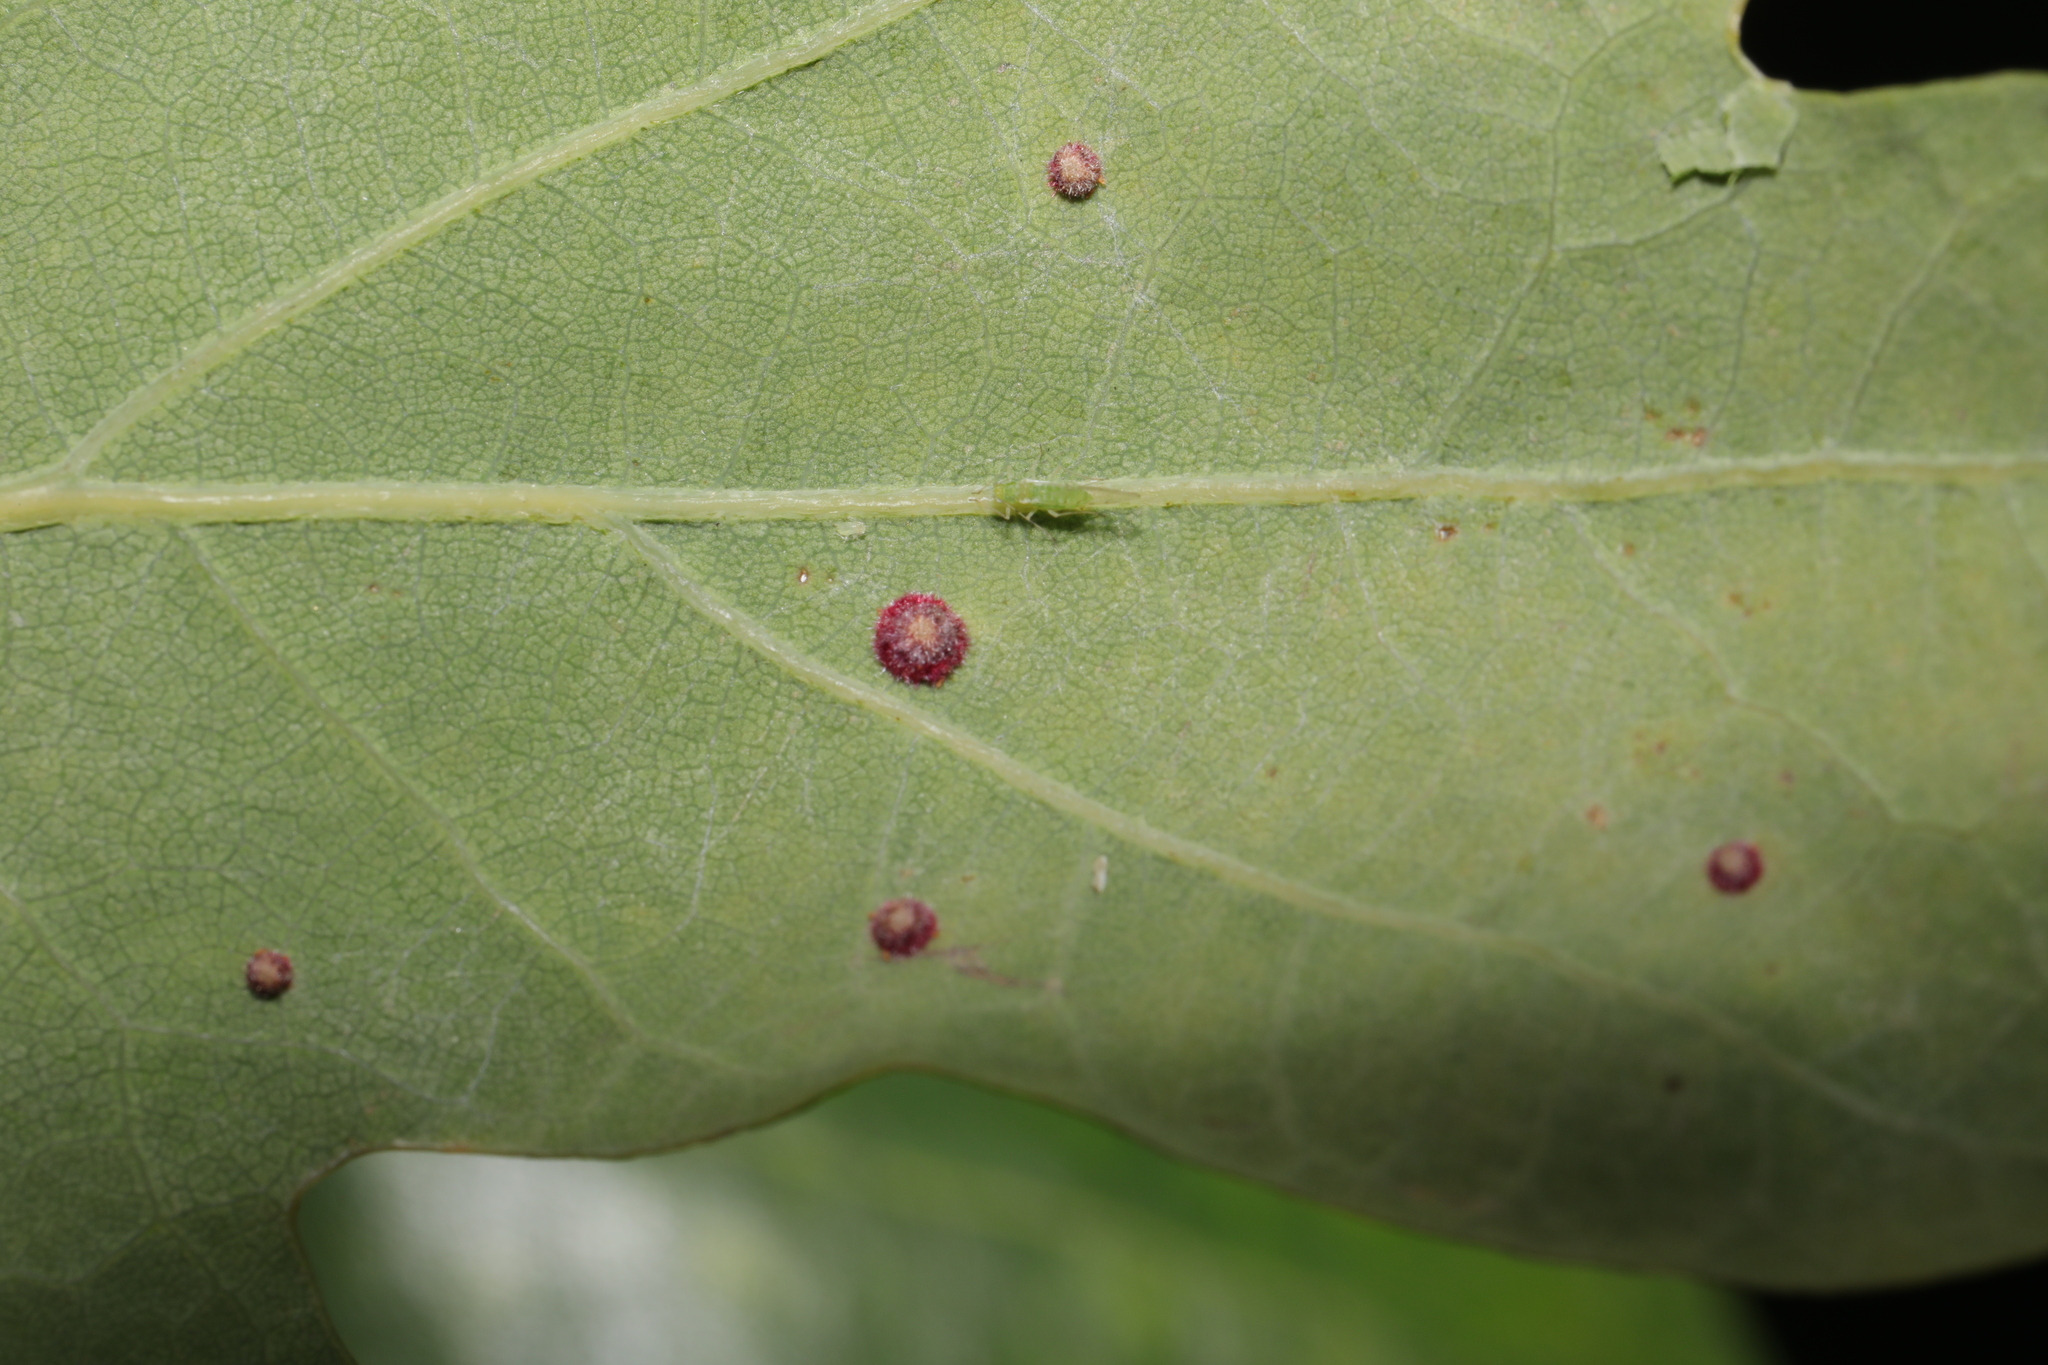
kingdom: Animalia
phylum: Arthropoda
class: Insecta
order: Hymenoptera
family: Cynipidae
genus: Neuroterus
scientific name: Neuroterus quercusbaccarum
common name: Common spangle gall
